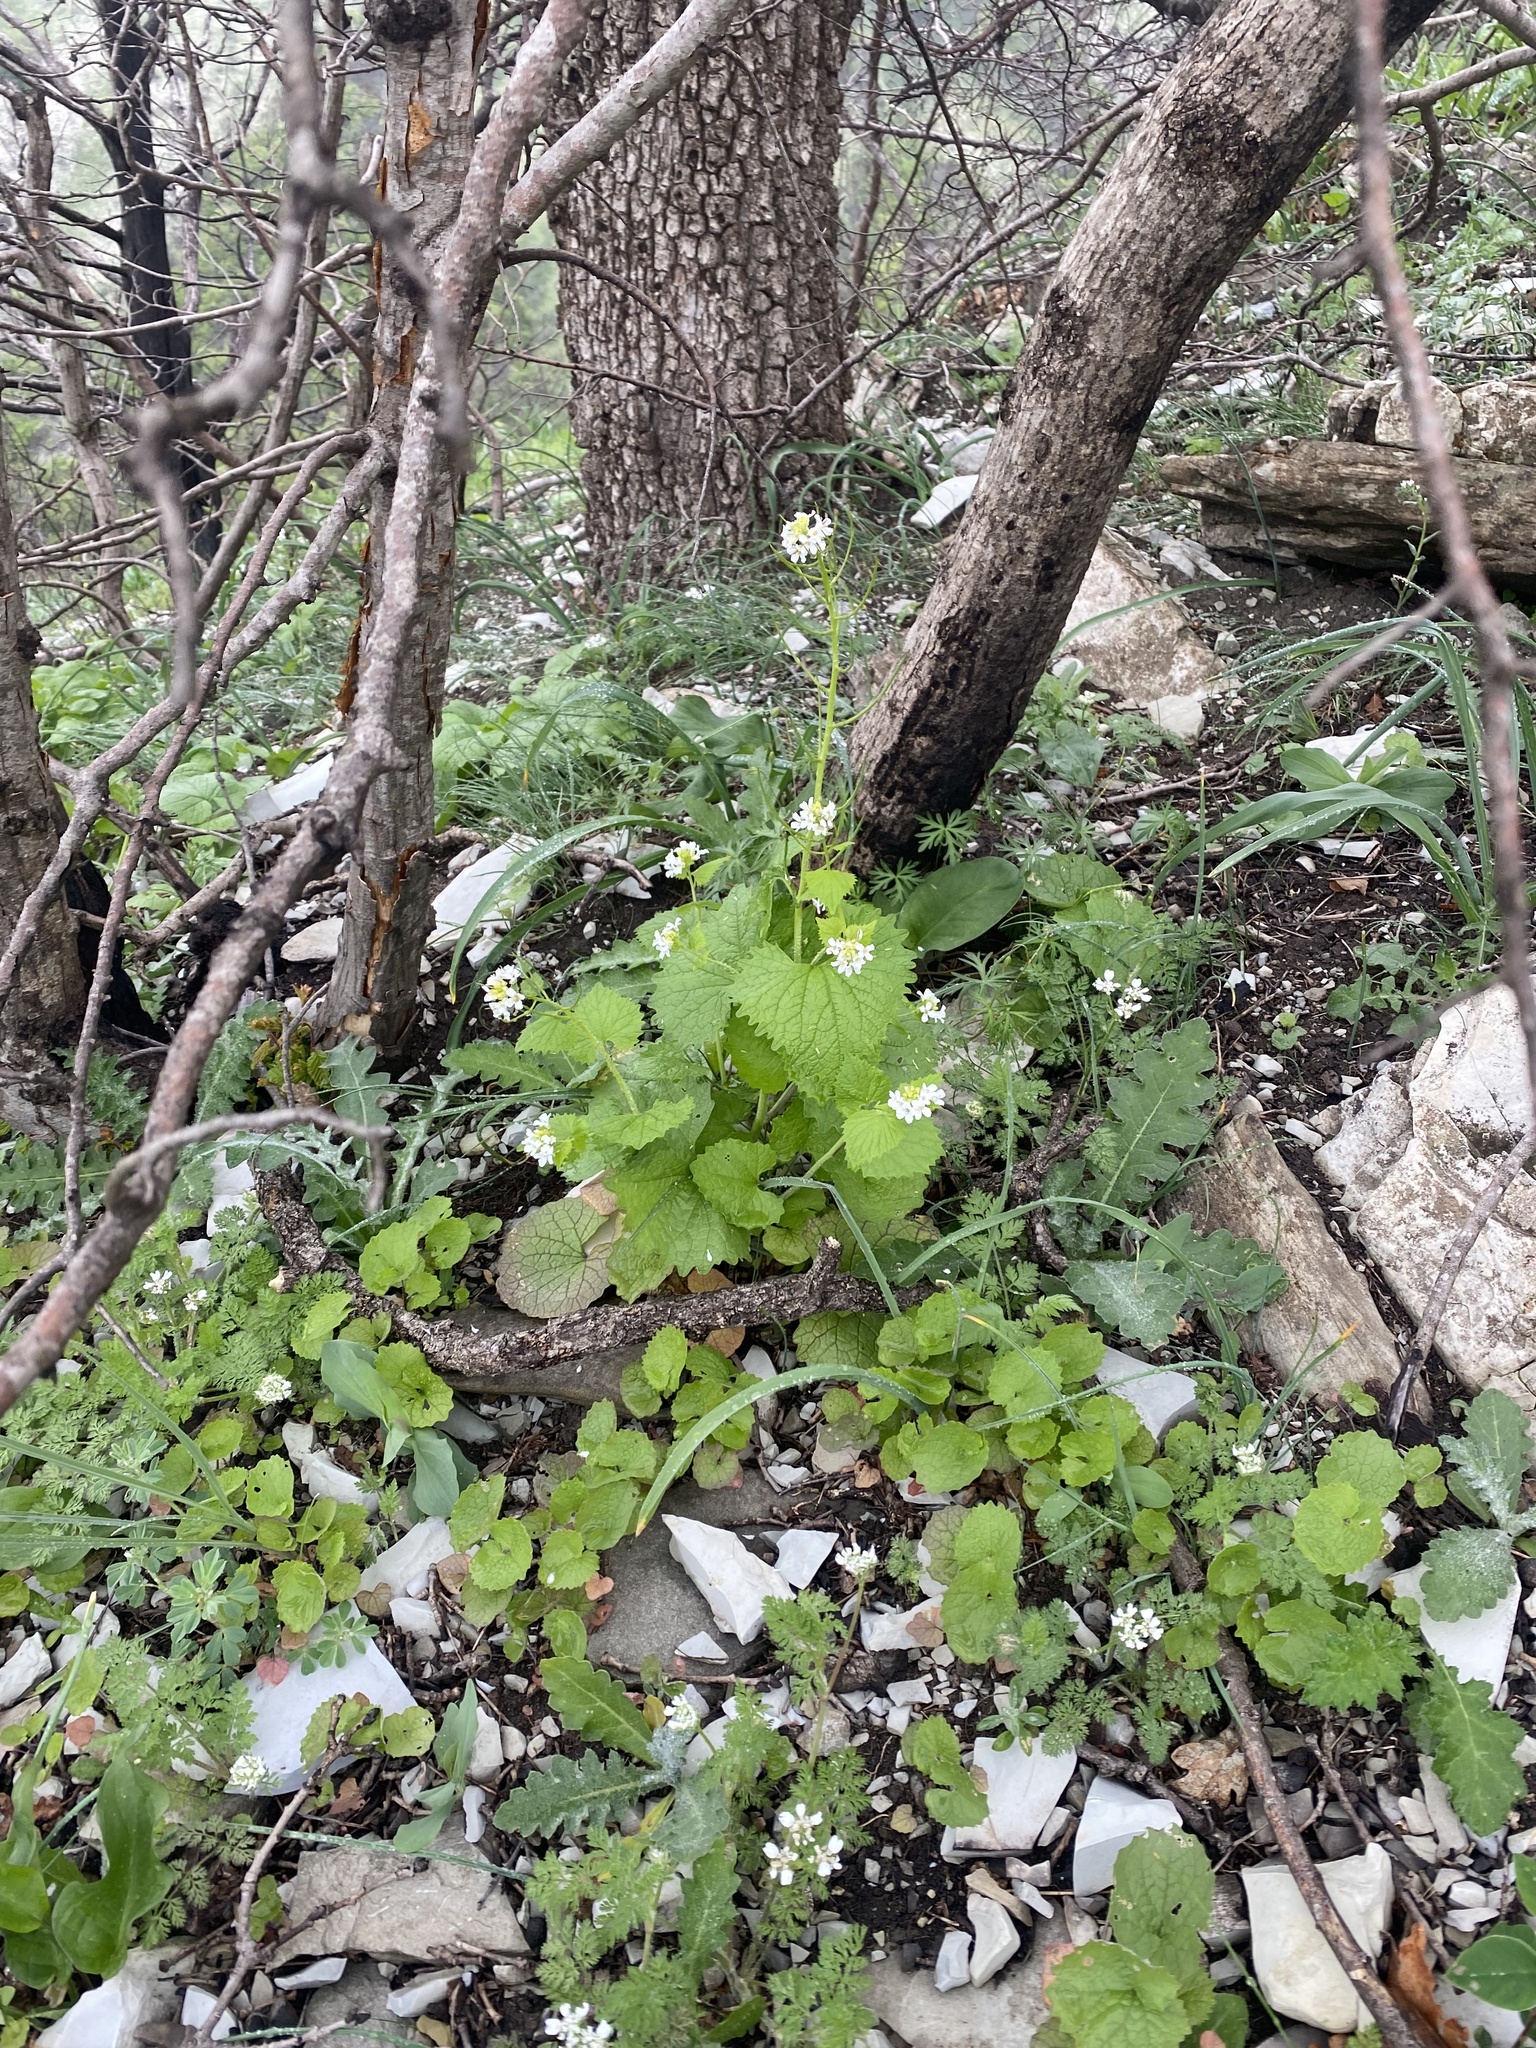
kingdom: Plantae
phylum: Tracheophyta
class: Magnoliopsida
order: Brassicales
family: Brassicaceae
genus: Alliaria
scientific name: Alliaria petiolata
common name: Garlic mustard
